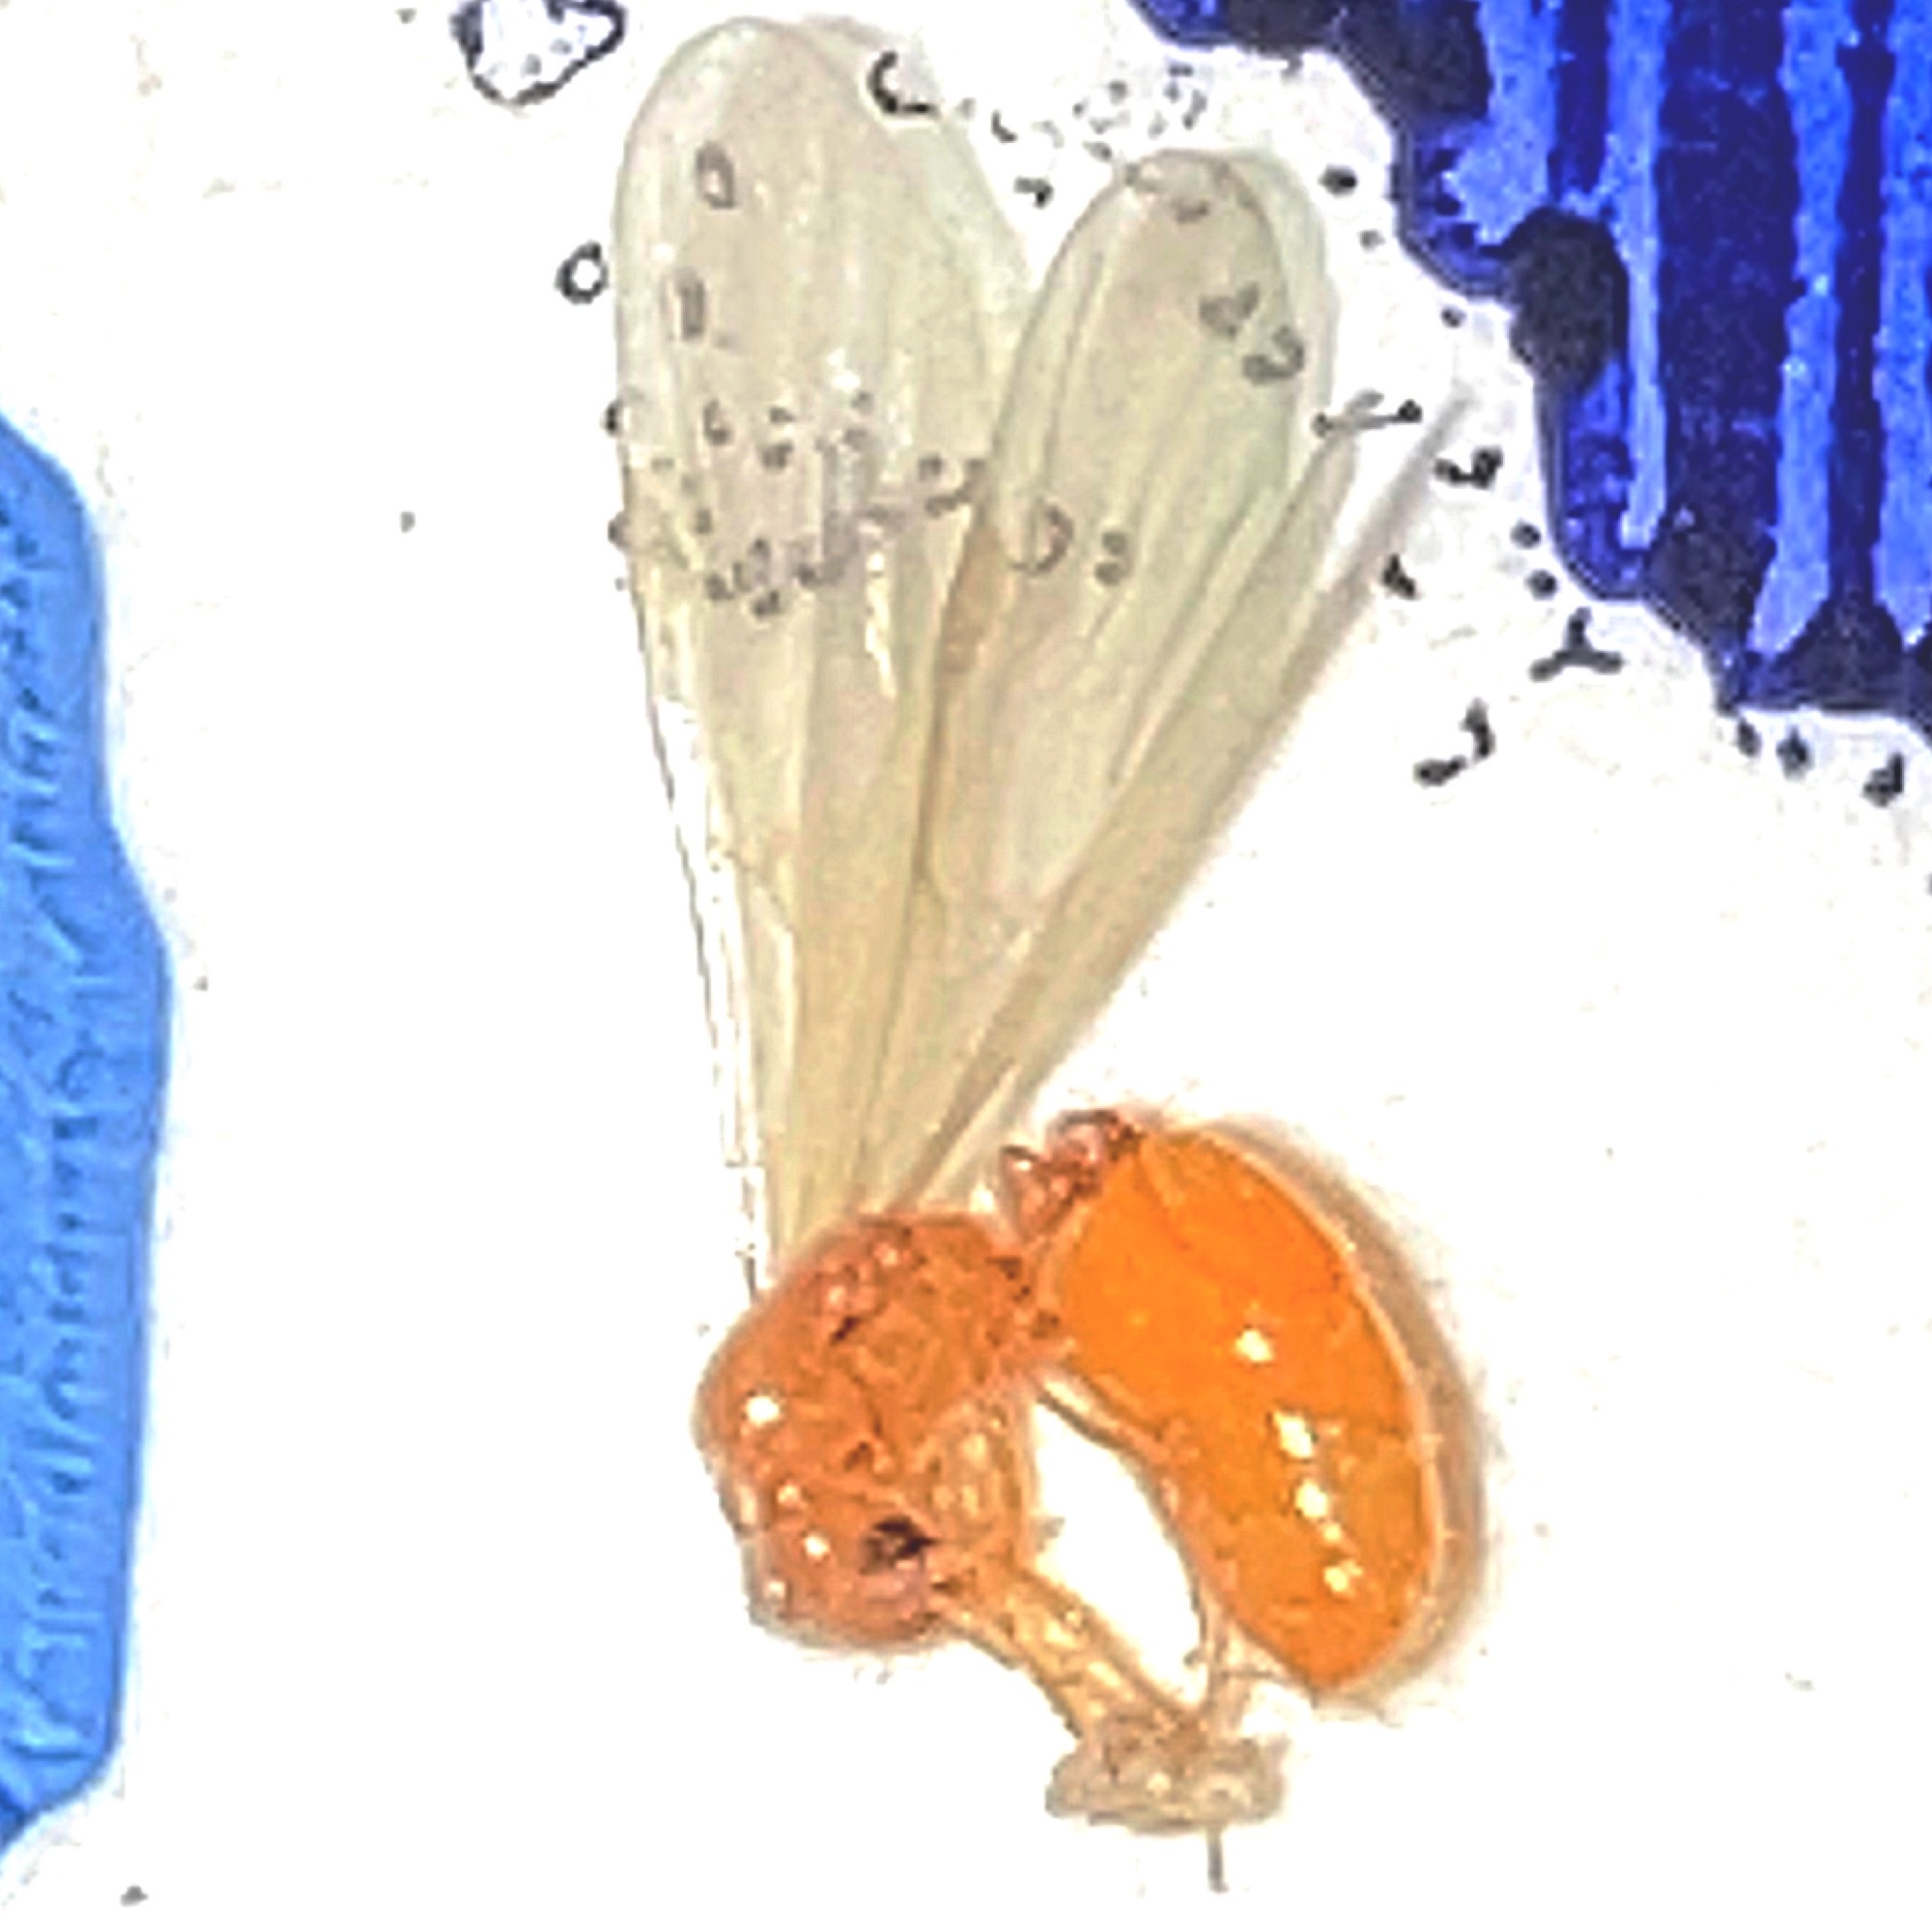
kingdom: Animalia
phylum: Arthropoda
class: Insecta
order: Hymenoptera
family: Formicidae
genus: Solenopsis
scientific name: Solenopsis carolinensis
